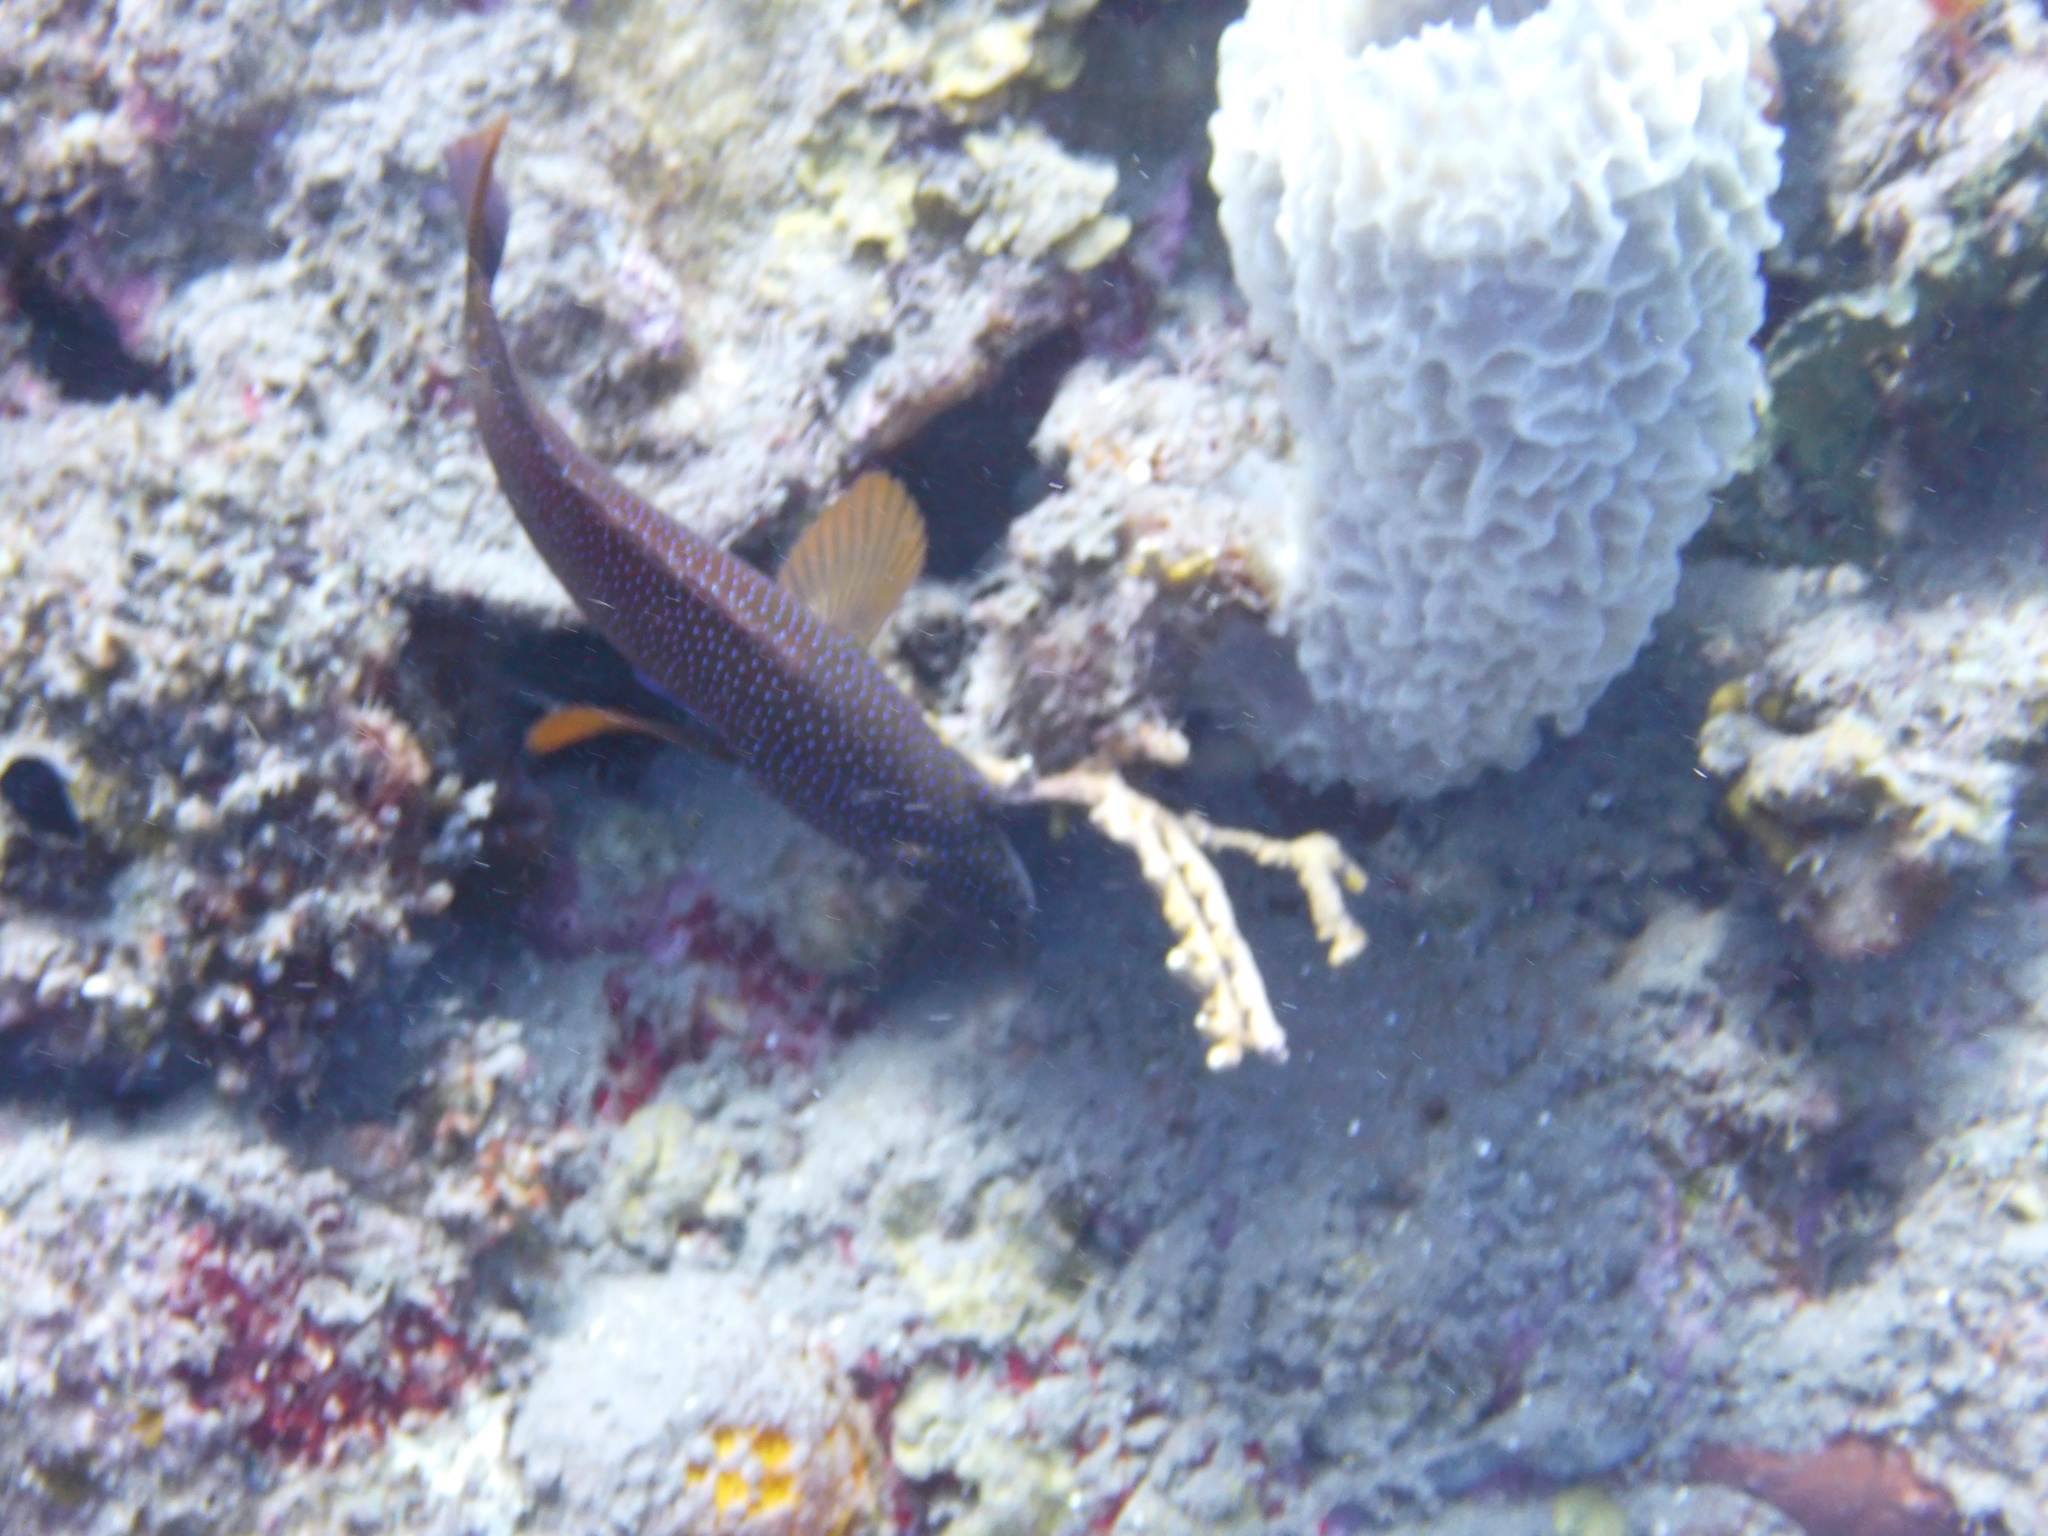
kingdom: Animalia
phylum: Chordata
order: Perciformes
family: Serranidae
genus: Cephalopholis
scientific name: Cephalopholis fulva
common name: Butterfish
